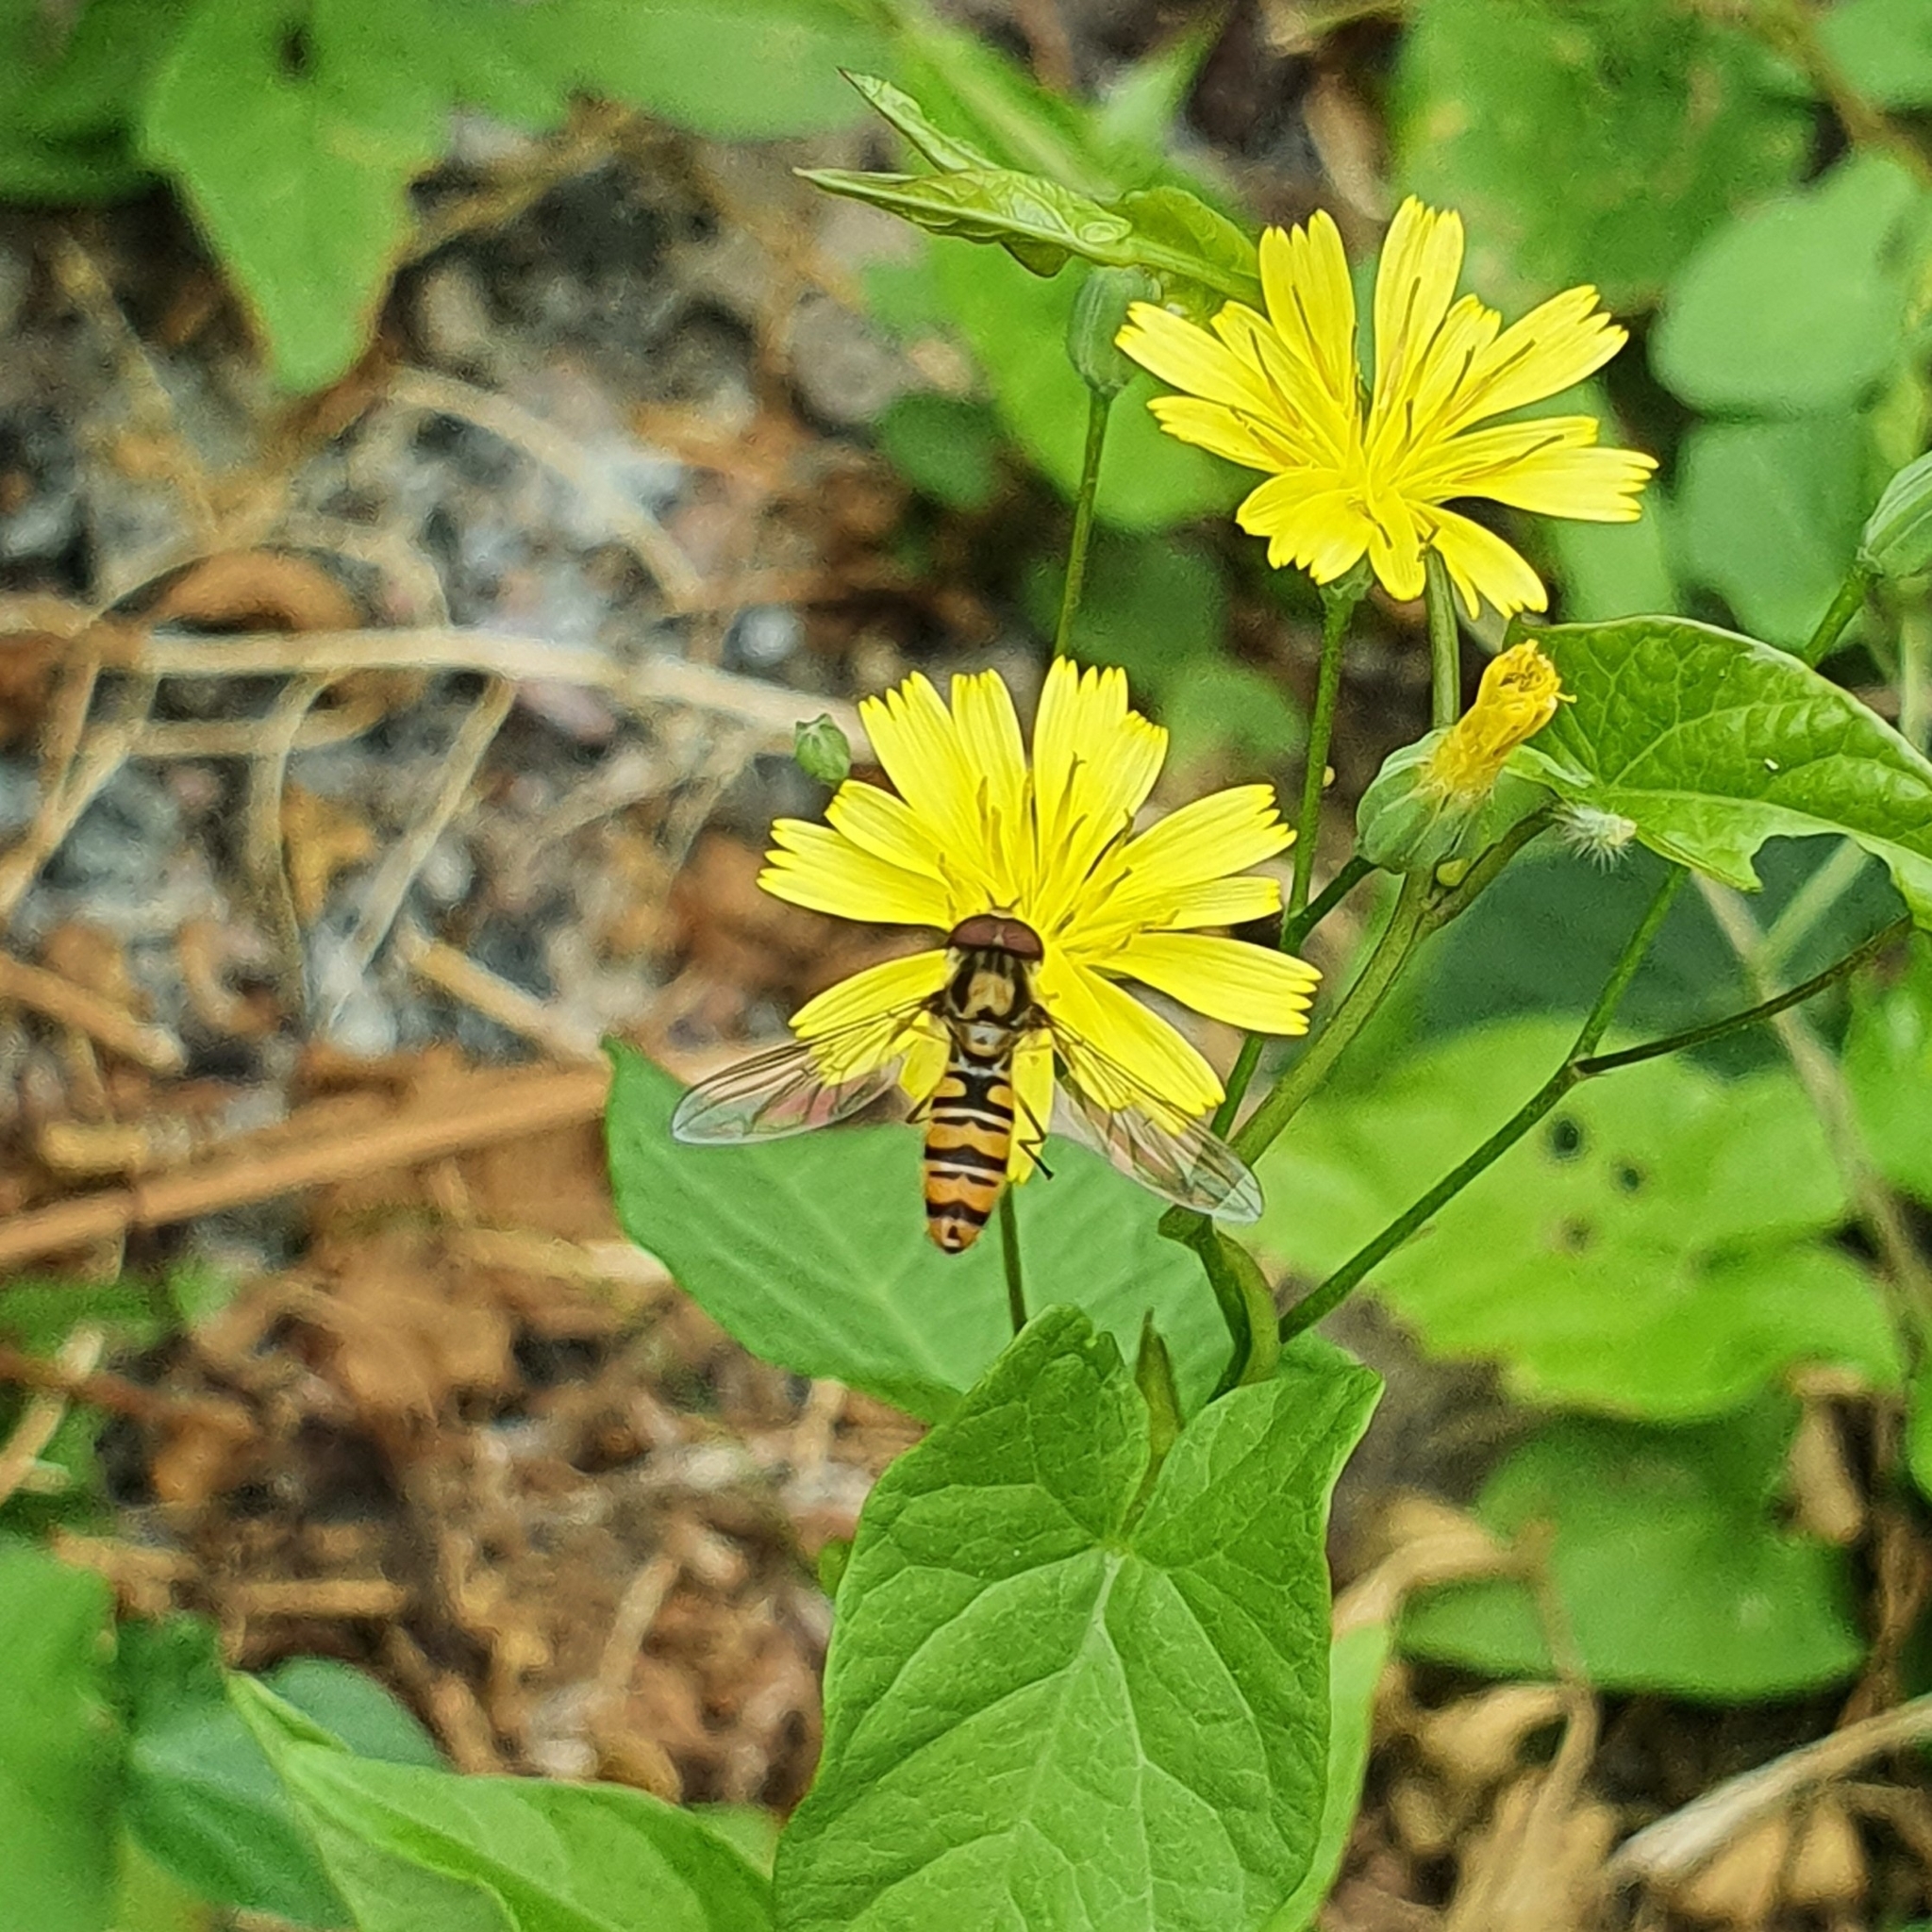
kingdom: Animalia
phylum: Arthropoda
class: Insecta
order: Diptera
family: Syrphidae
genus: Episyrphus
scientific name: Episyrphus balteatus
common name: Marmalade hoverfly
